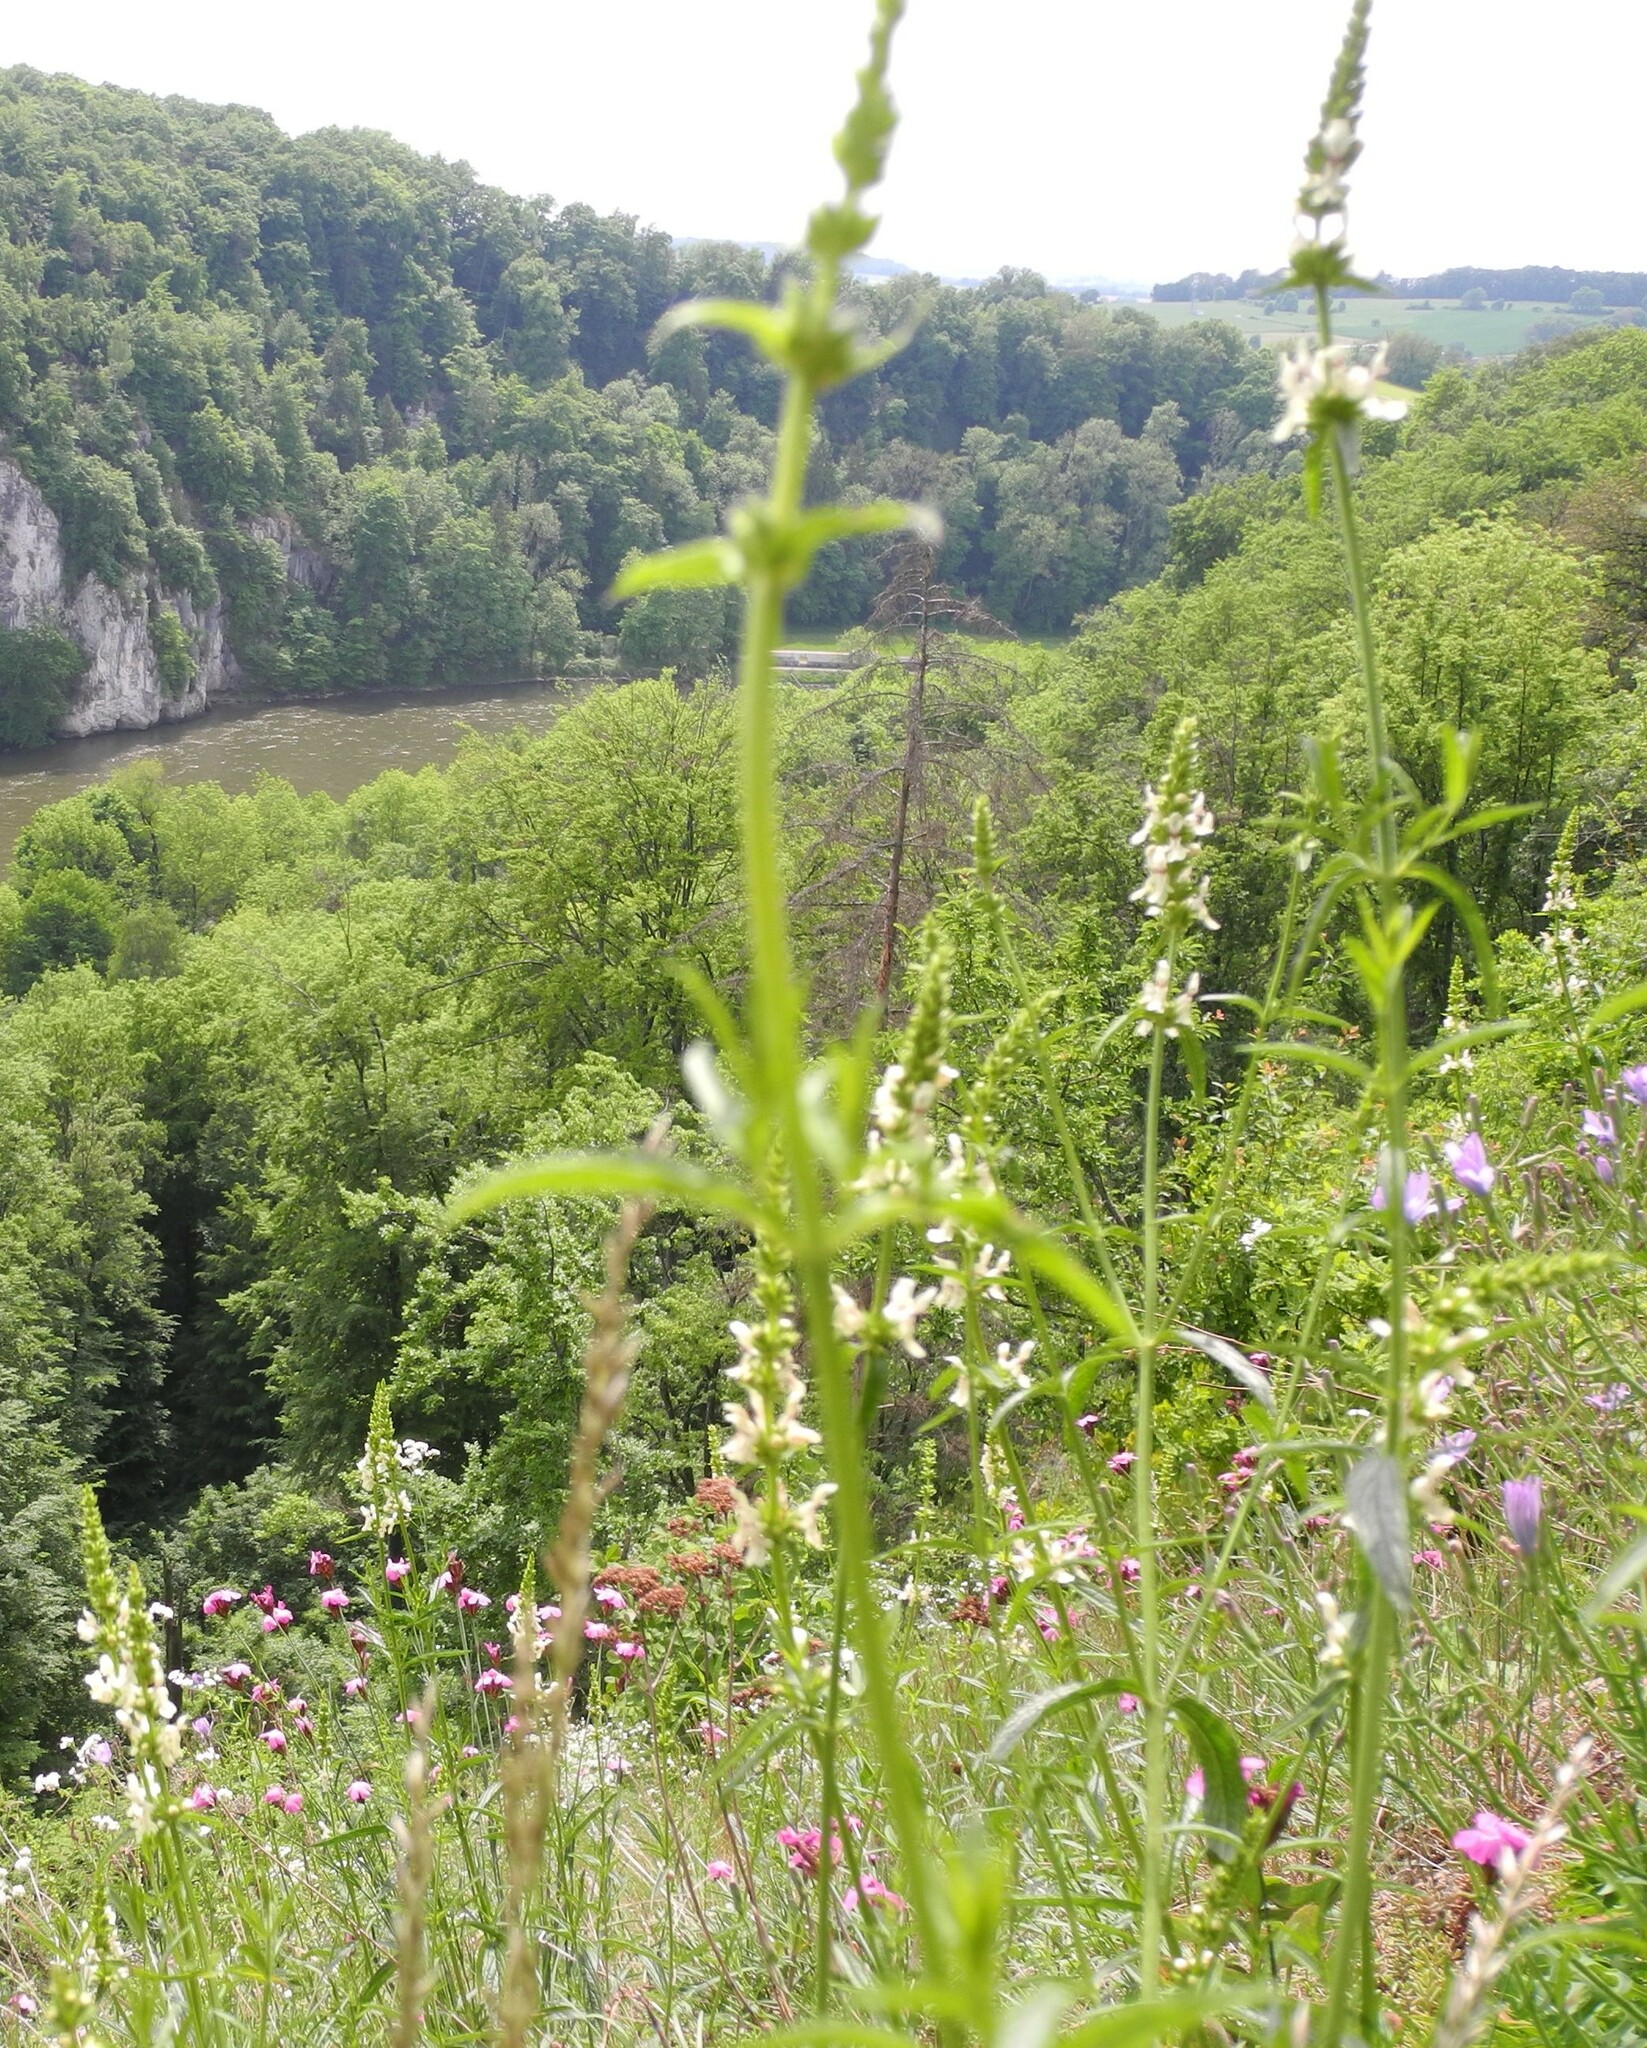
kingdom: Plantae
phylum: Tracheophyta
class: Magnoliopsida
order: Lamiales
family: Lamiaceae
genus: Stachys
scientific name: Stachys recta
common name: Perennial yellow-woundwort
